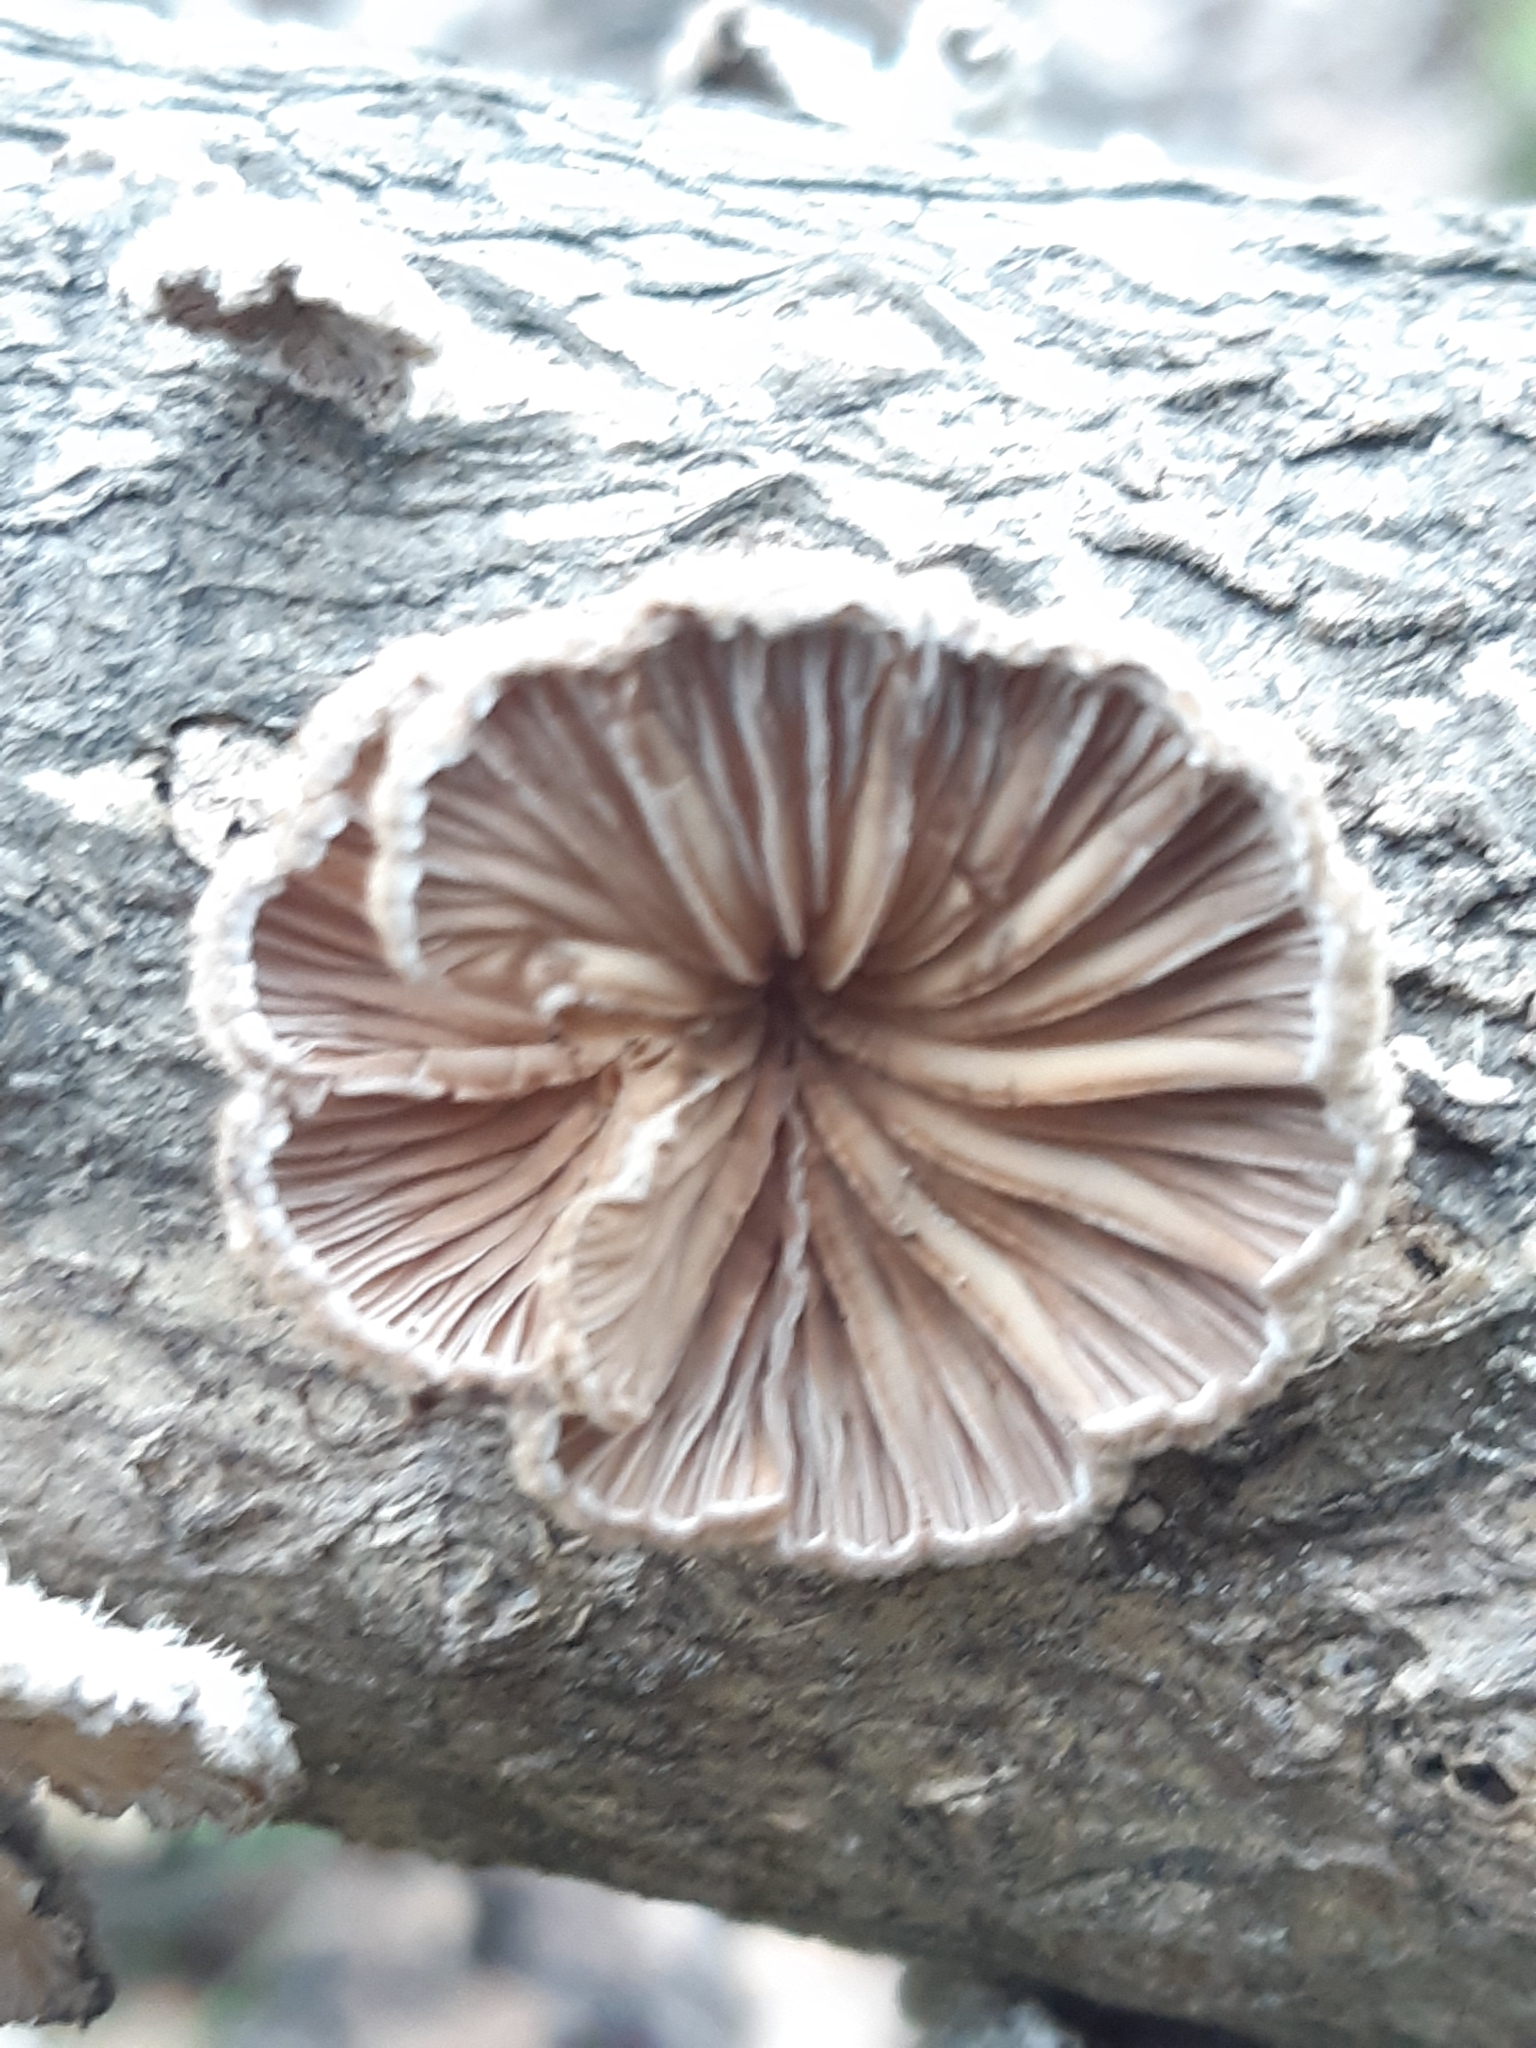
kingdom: Fungi
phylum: Basidiomycota
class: Agaricomycetes
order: Agaricales
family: Schizophyllaceae
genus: Schizophyllum
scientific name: Schizophyllum commune
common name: Common porecrust
